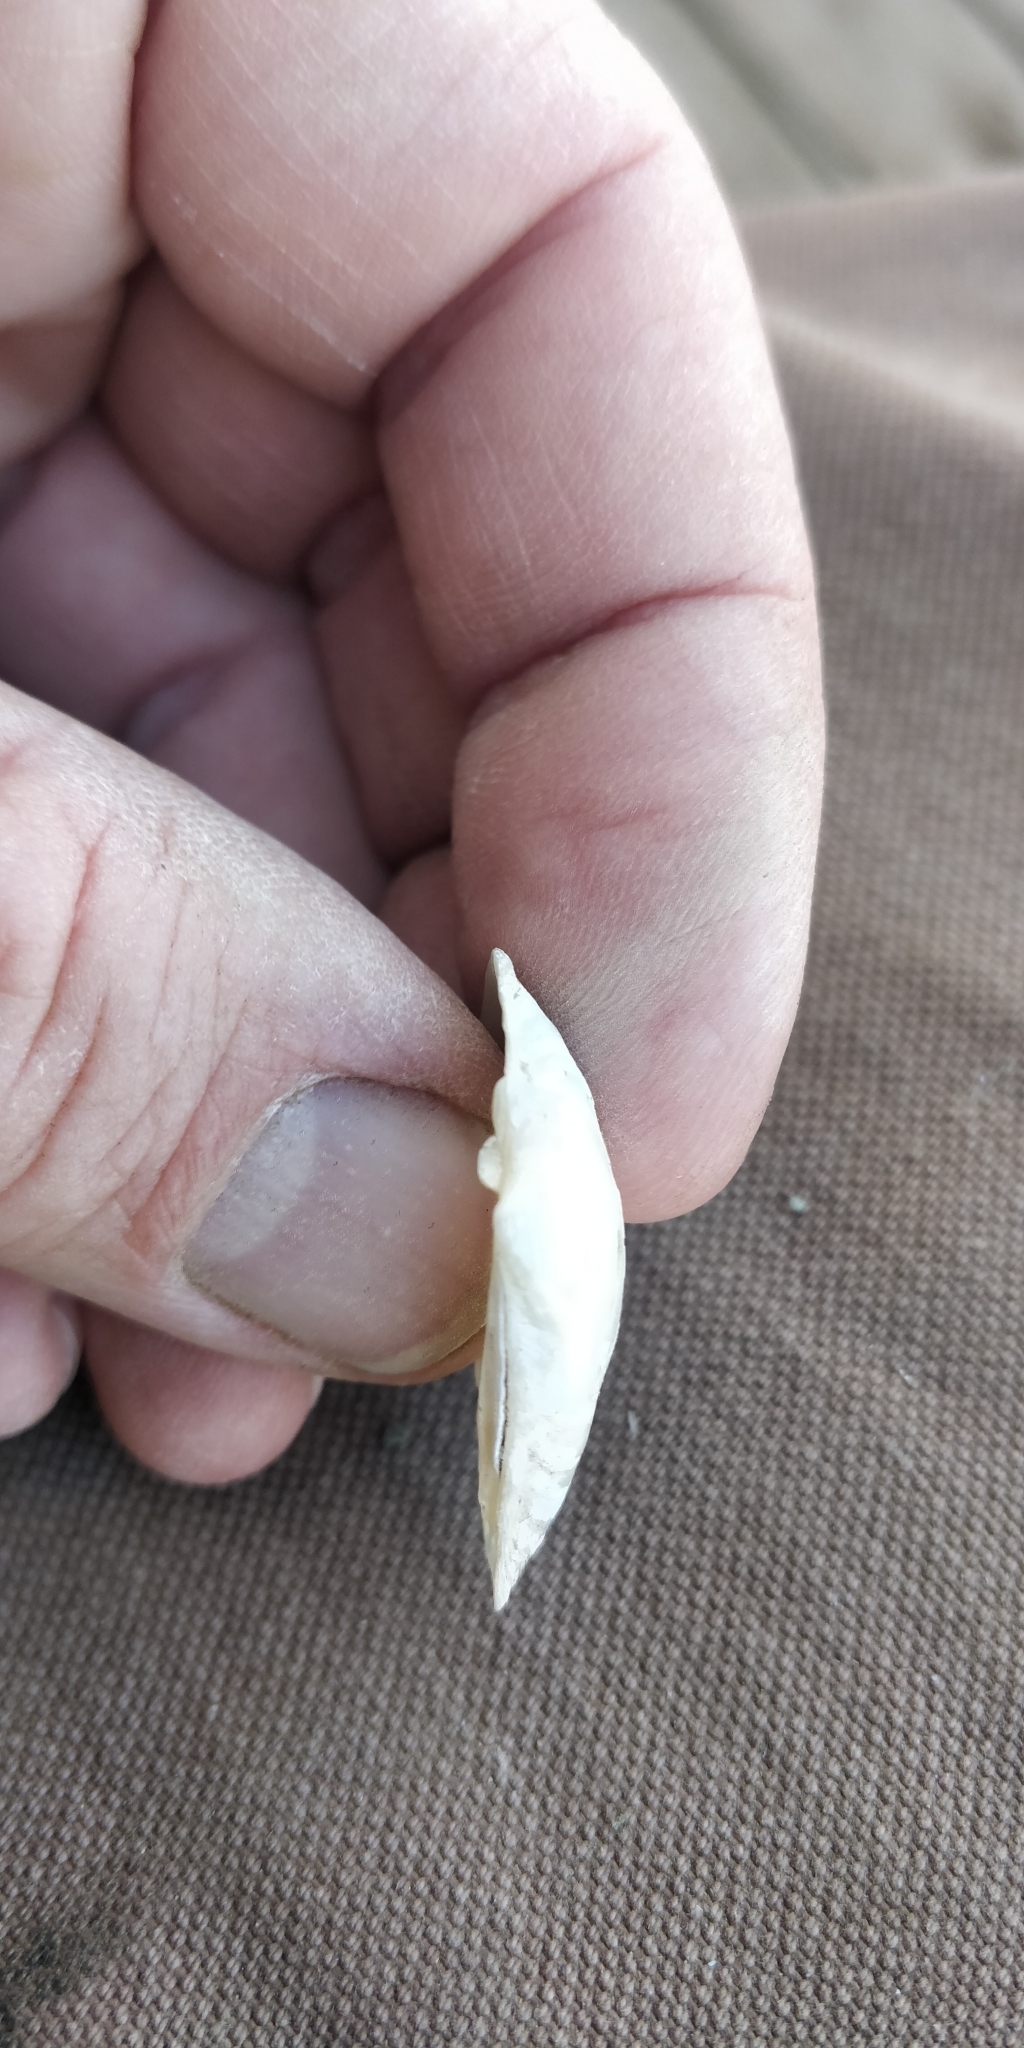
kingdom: Animalia
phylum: Mollusca
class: Bivalvia
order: Unionida
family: Unionidae
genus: Truncilla
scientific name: Truncilla donaciformis
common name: Fawnsfoot
